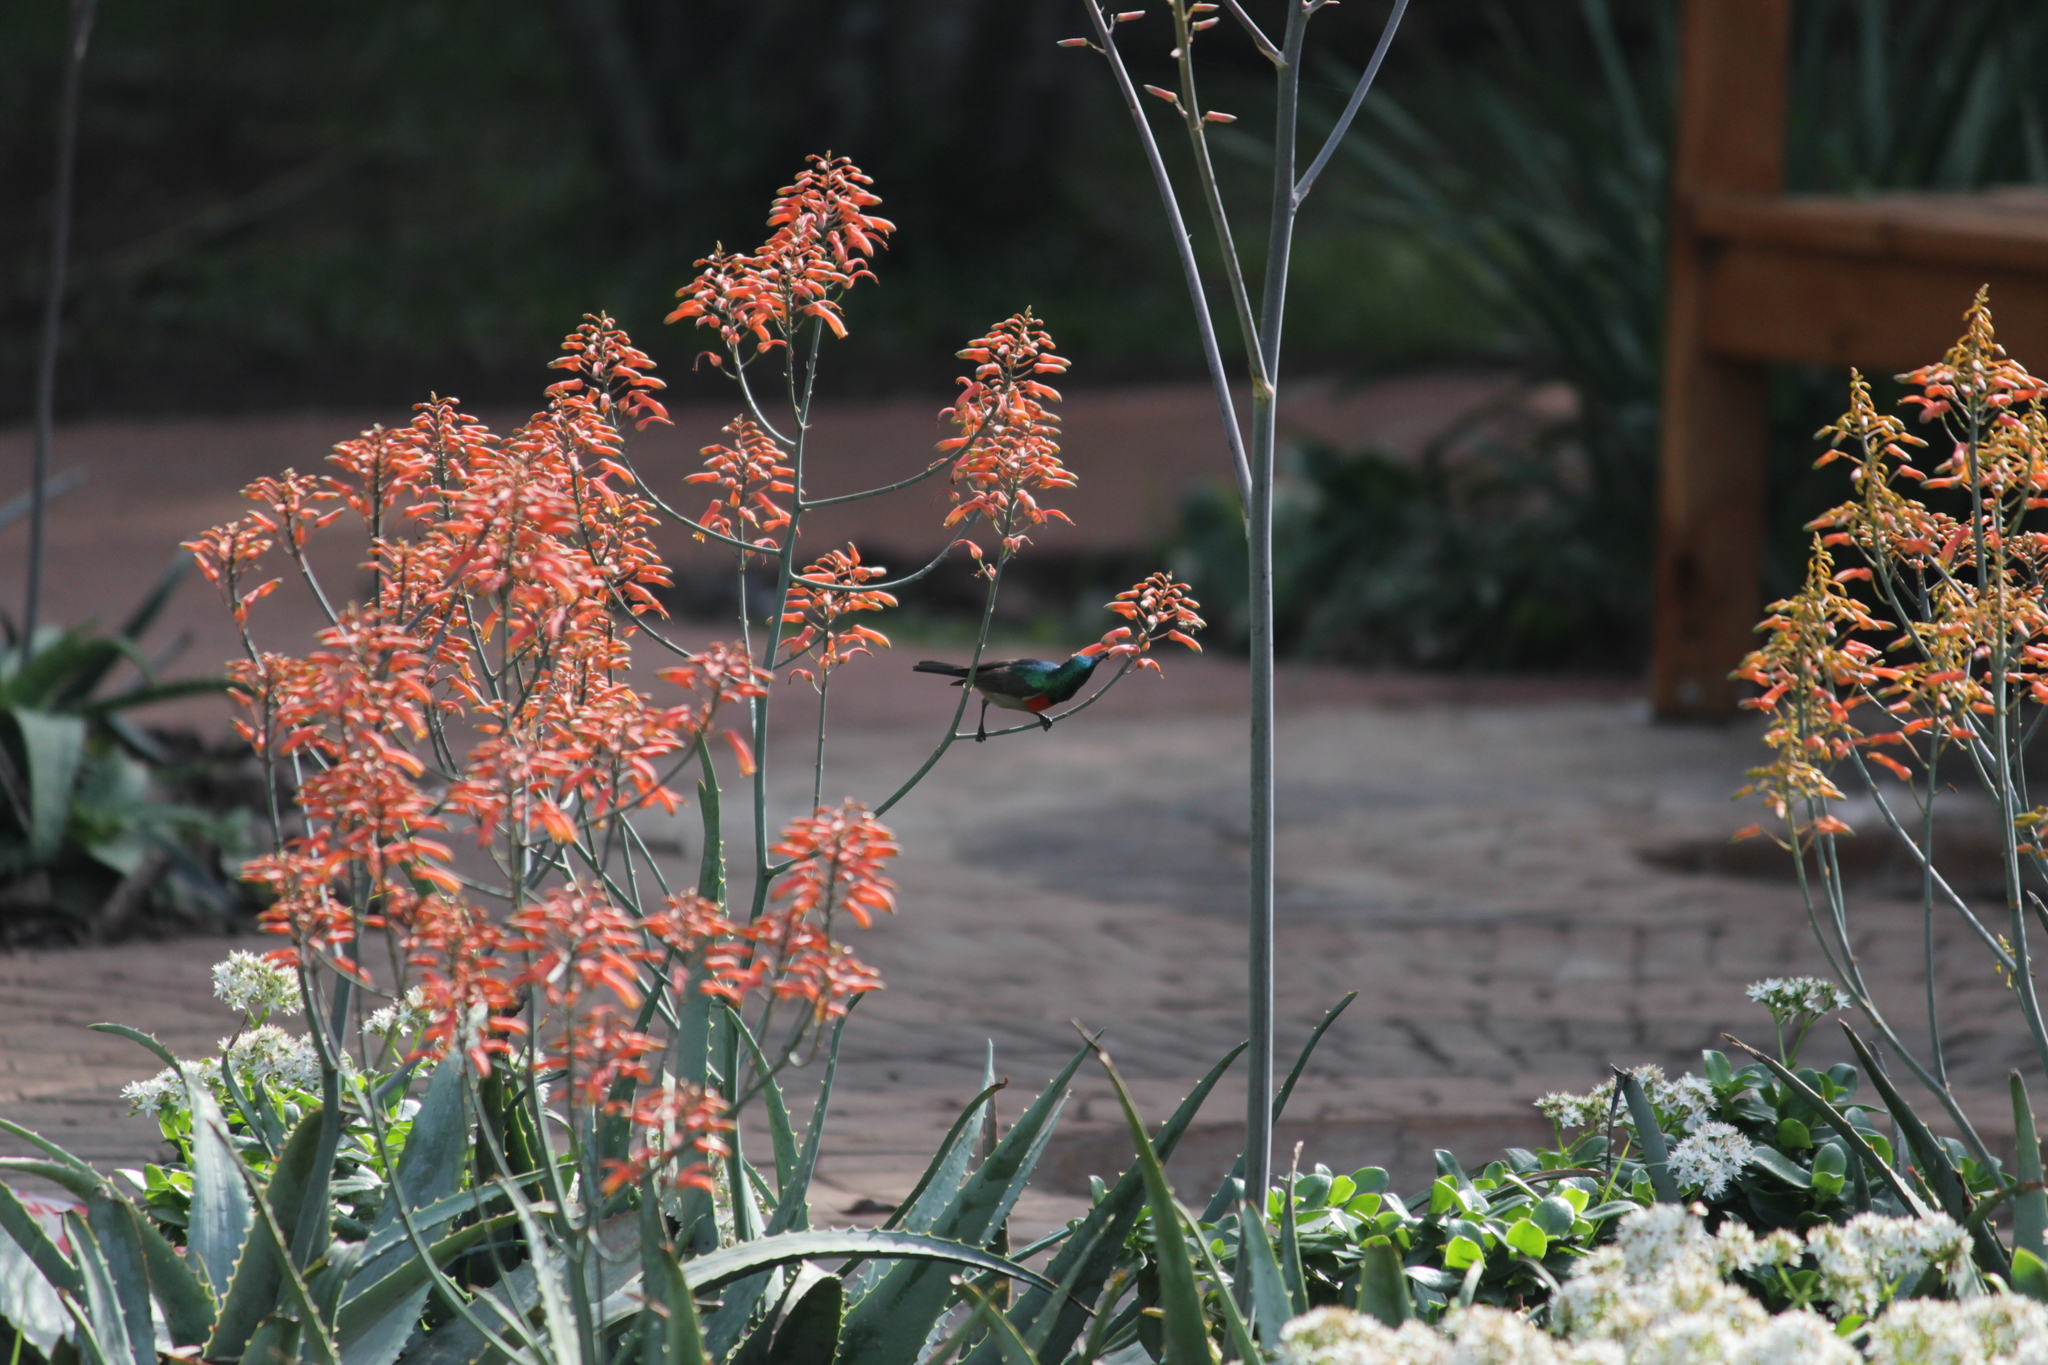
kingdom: Animalia
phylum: Chordata
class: Aves
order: Passeriformes
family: Nectariniidae
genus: Cinnyris
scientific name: Cinnyris afer
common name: Greater double-collared sunbird
